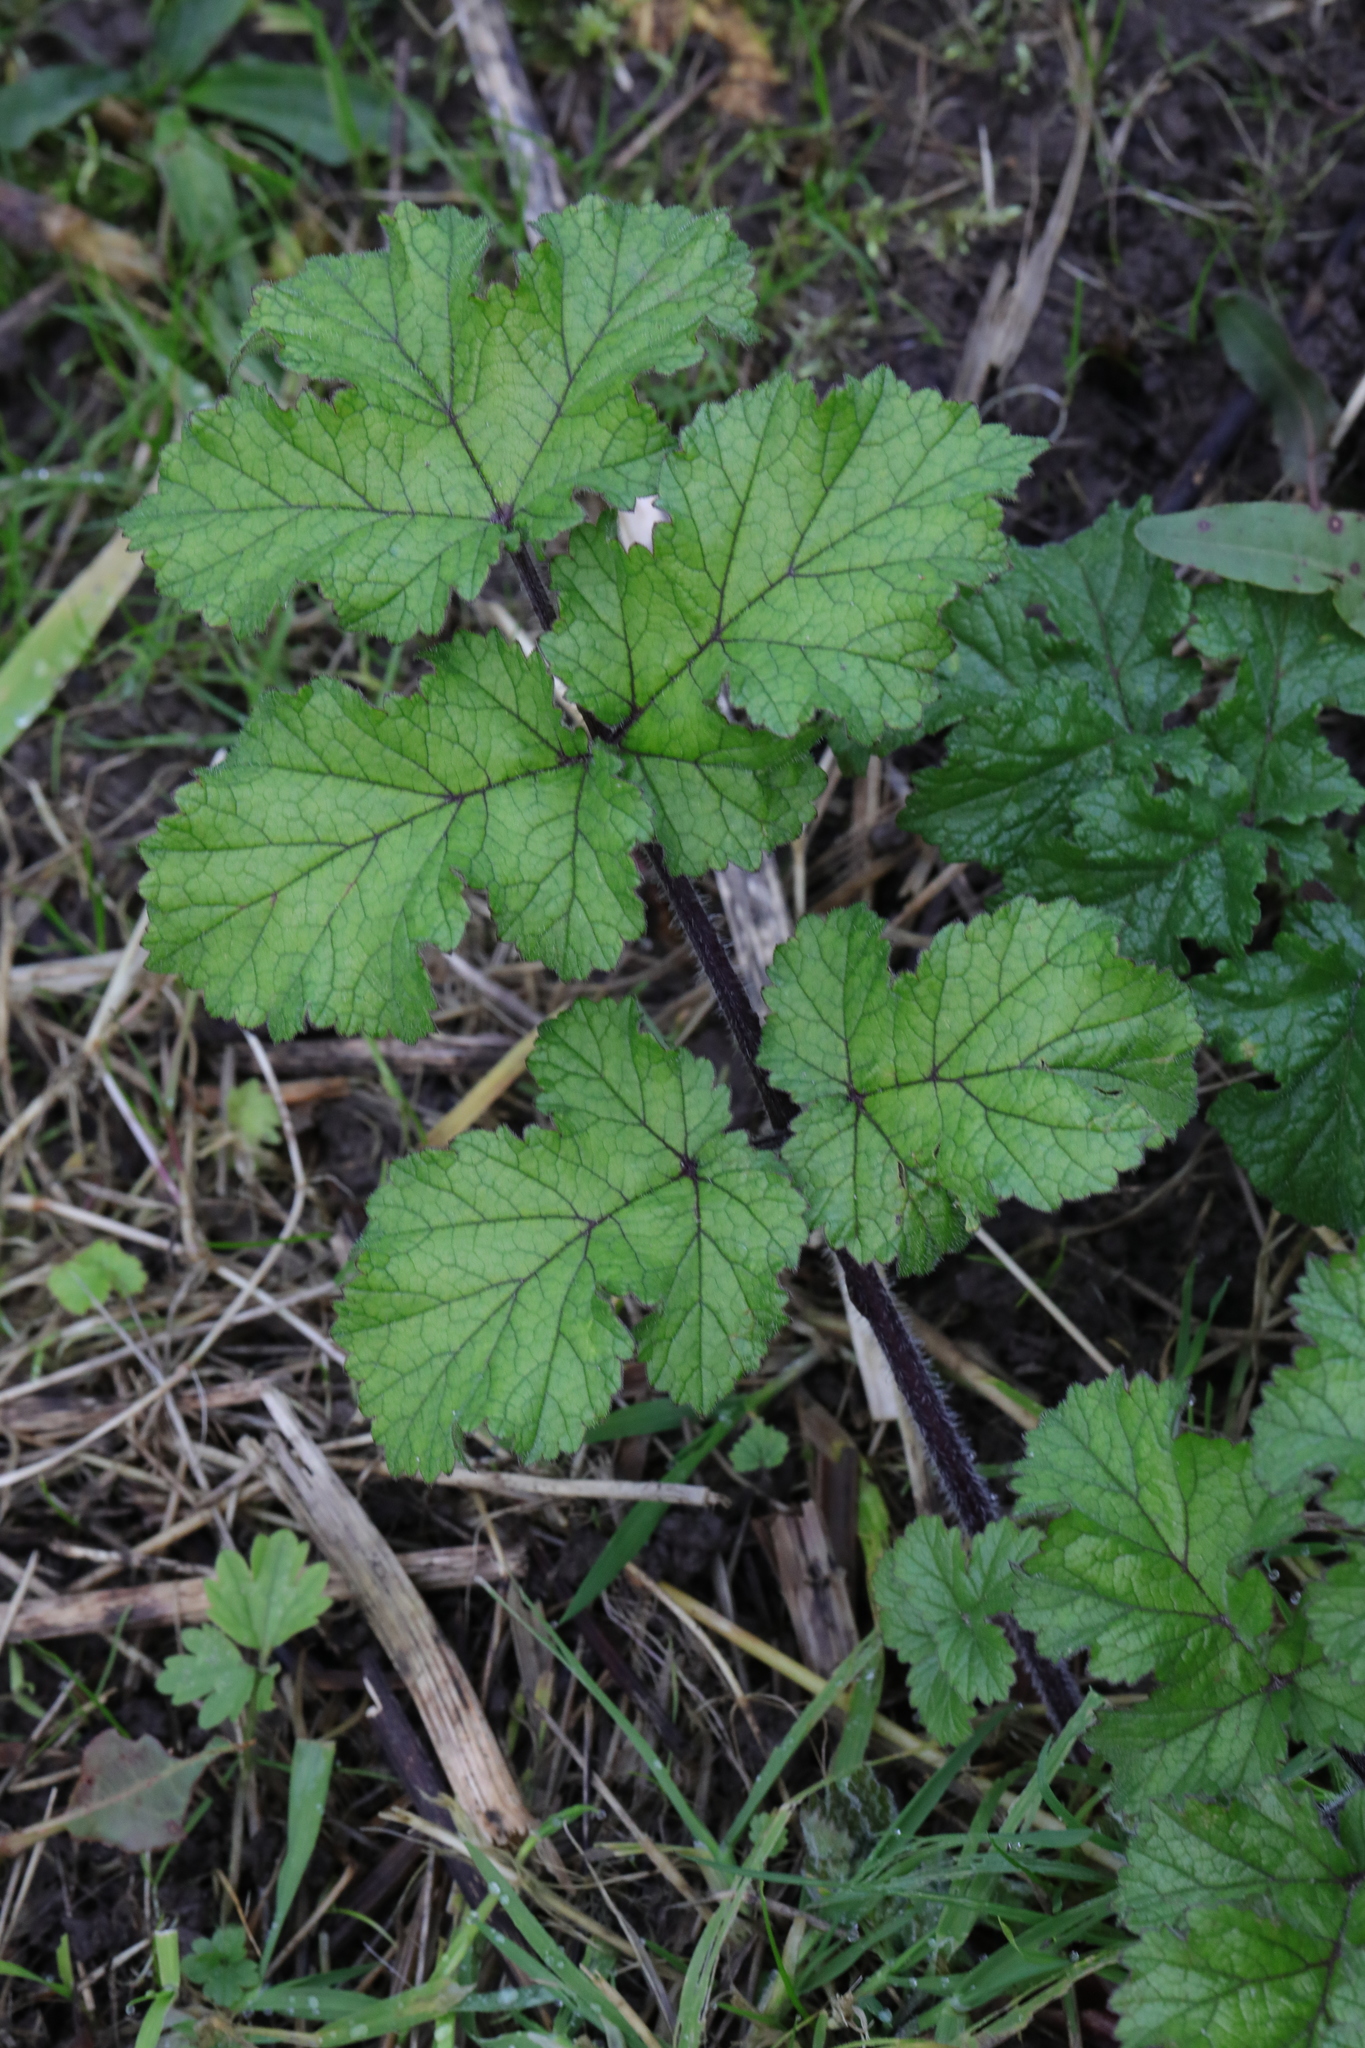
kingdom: Plantae
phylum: Tracheophyta
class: Magnoliopsida
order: Apiales
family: Apiaceae
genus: Heracleum
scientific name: Heracleum sphondylium
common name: Hogweed
